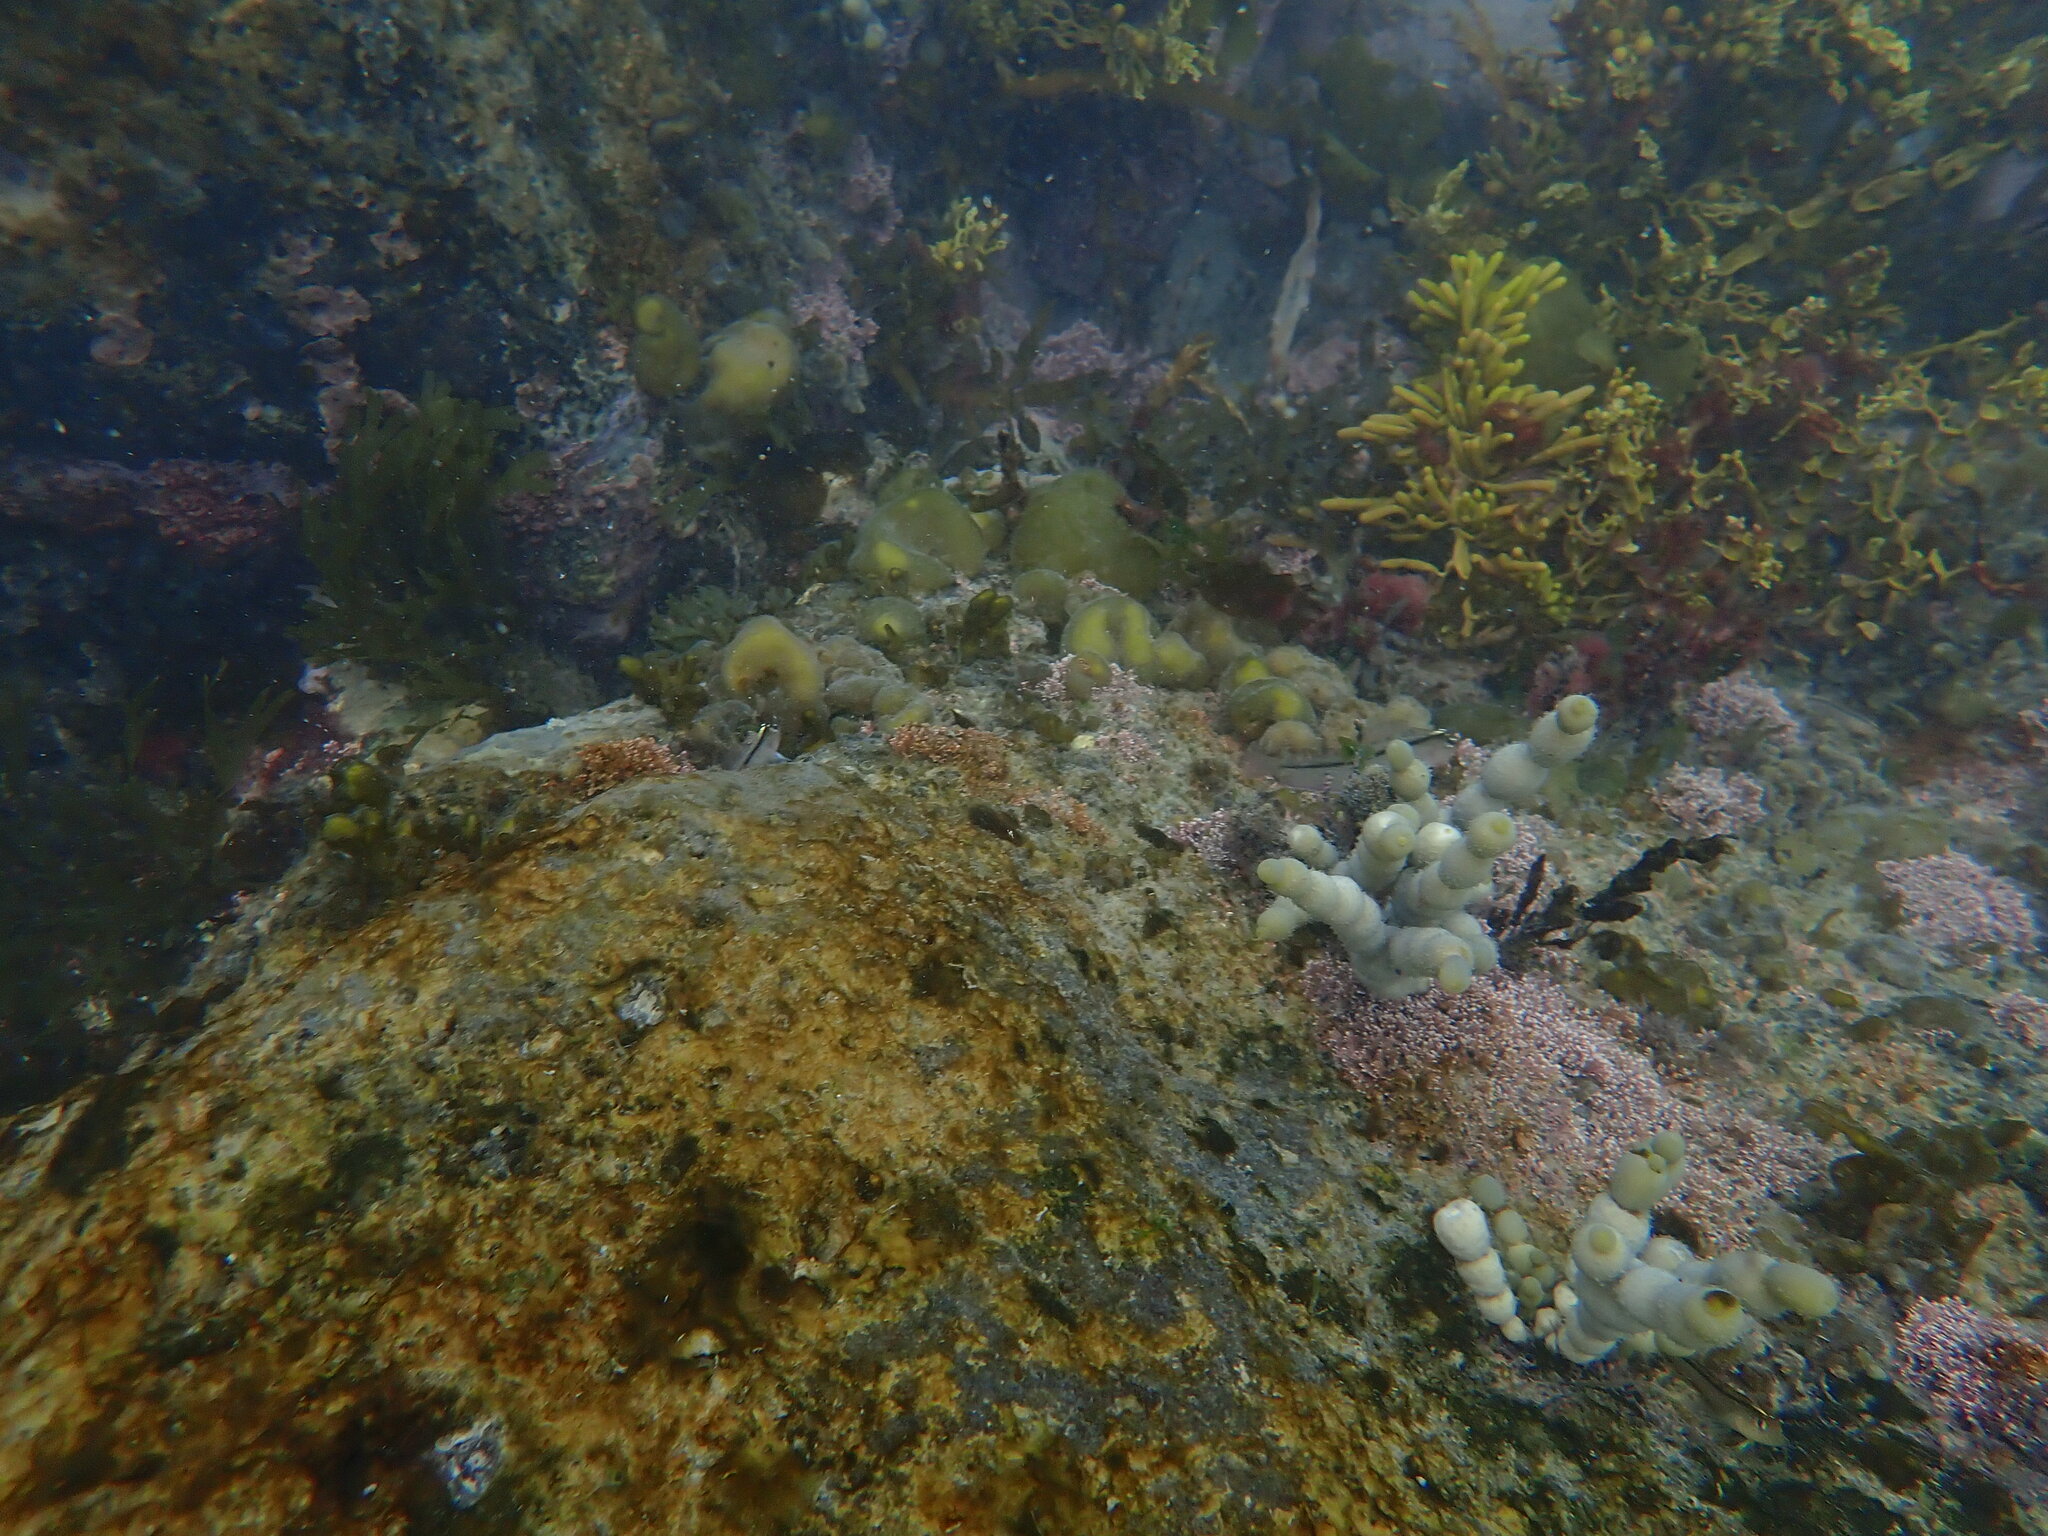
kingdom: Chromista
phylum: Ochrophyta
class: Phaeophyceae
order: Fucales
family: Hormosiraceae
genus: Hormosira
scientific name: Hormosira banksii
